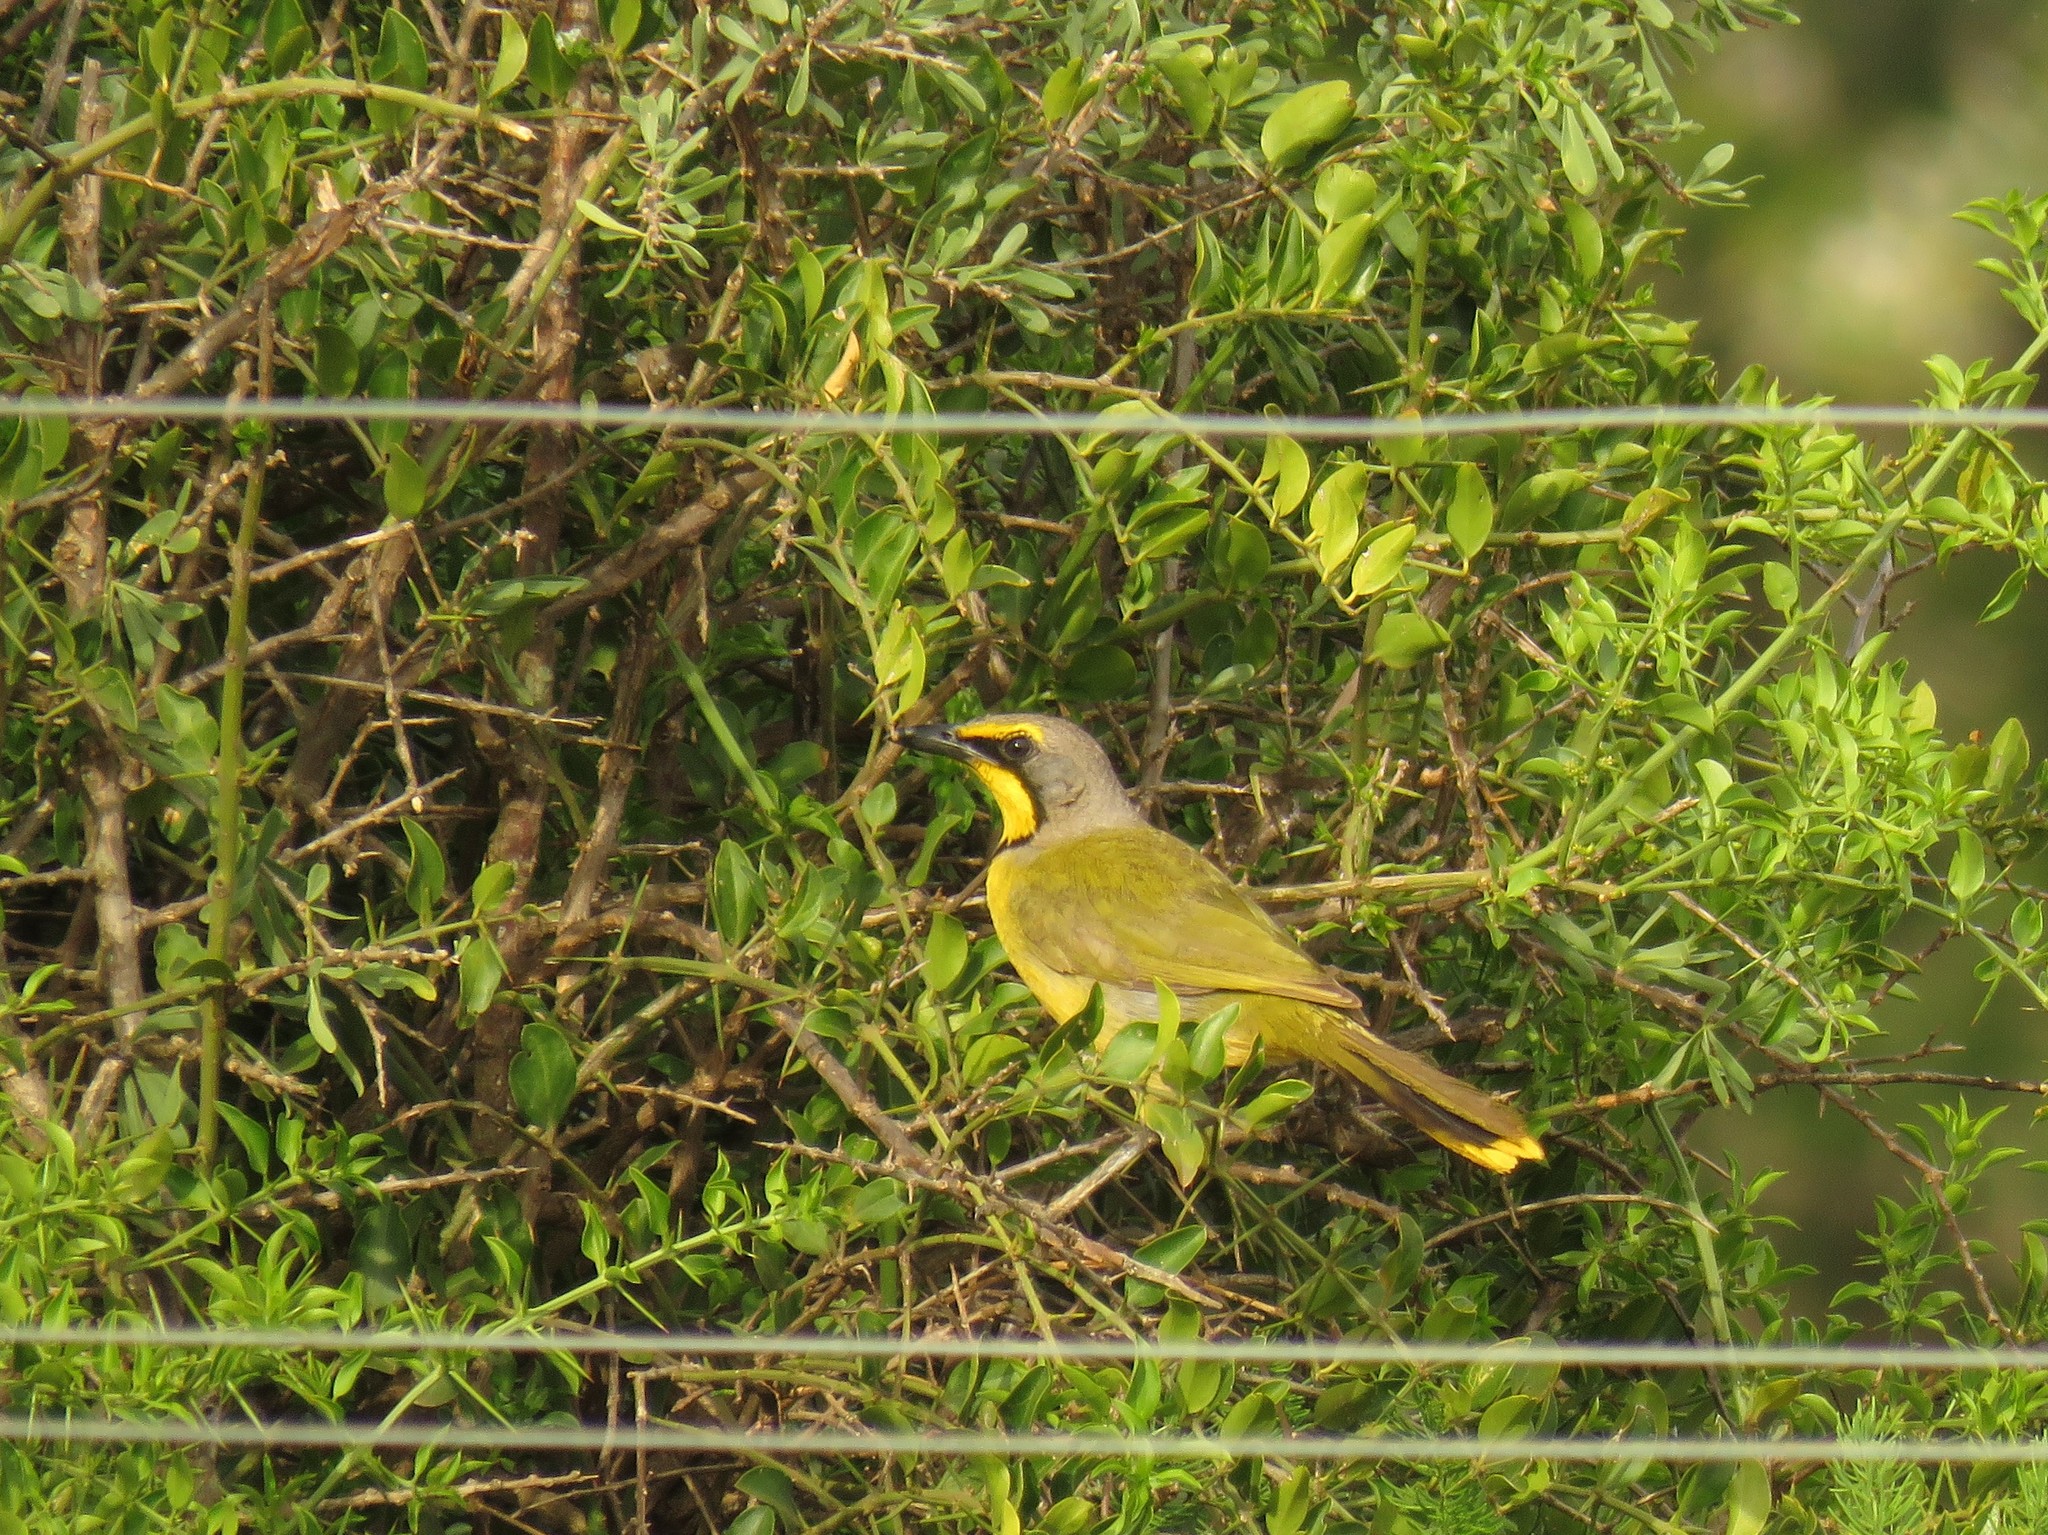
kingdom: Animalia
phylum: Chordata
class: Aves
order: Passeriformes
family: Malaconotidae
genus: Telophorus
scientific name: Telophorus zeylonus
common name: Bokmakierie
